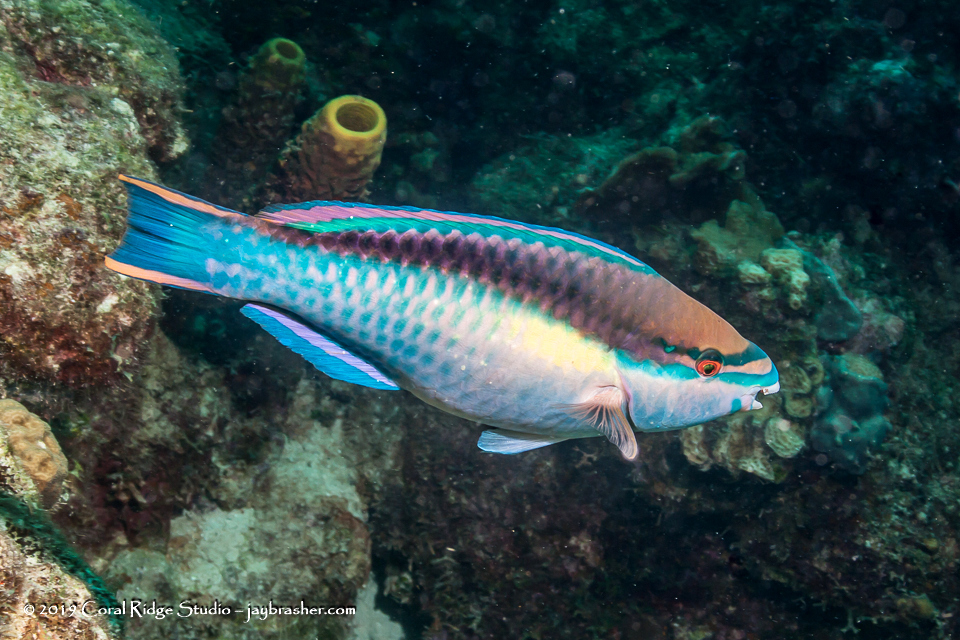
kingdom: Animalia
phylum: Chordata
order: Perciformes
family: Scaridae
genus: Scarus
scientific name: Scarus taeniopterus
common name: Princess parrotfish
